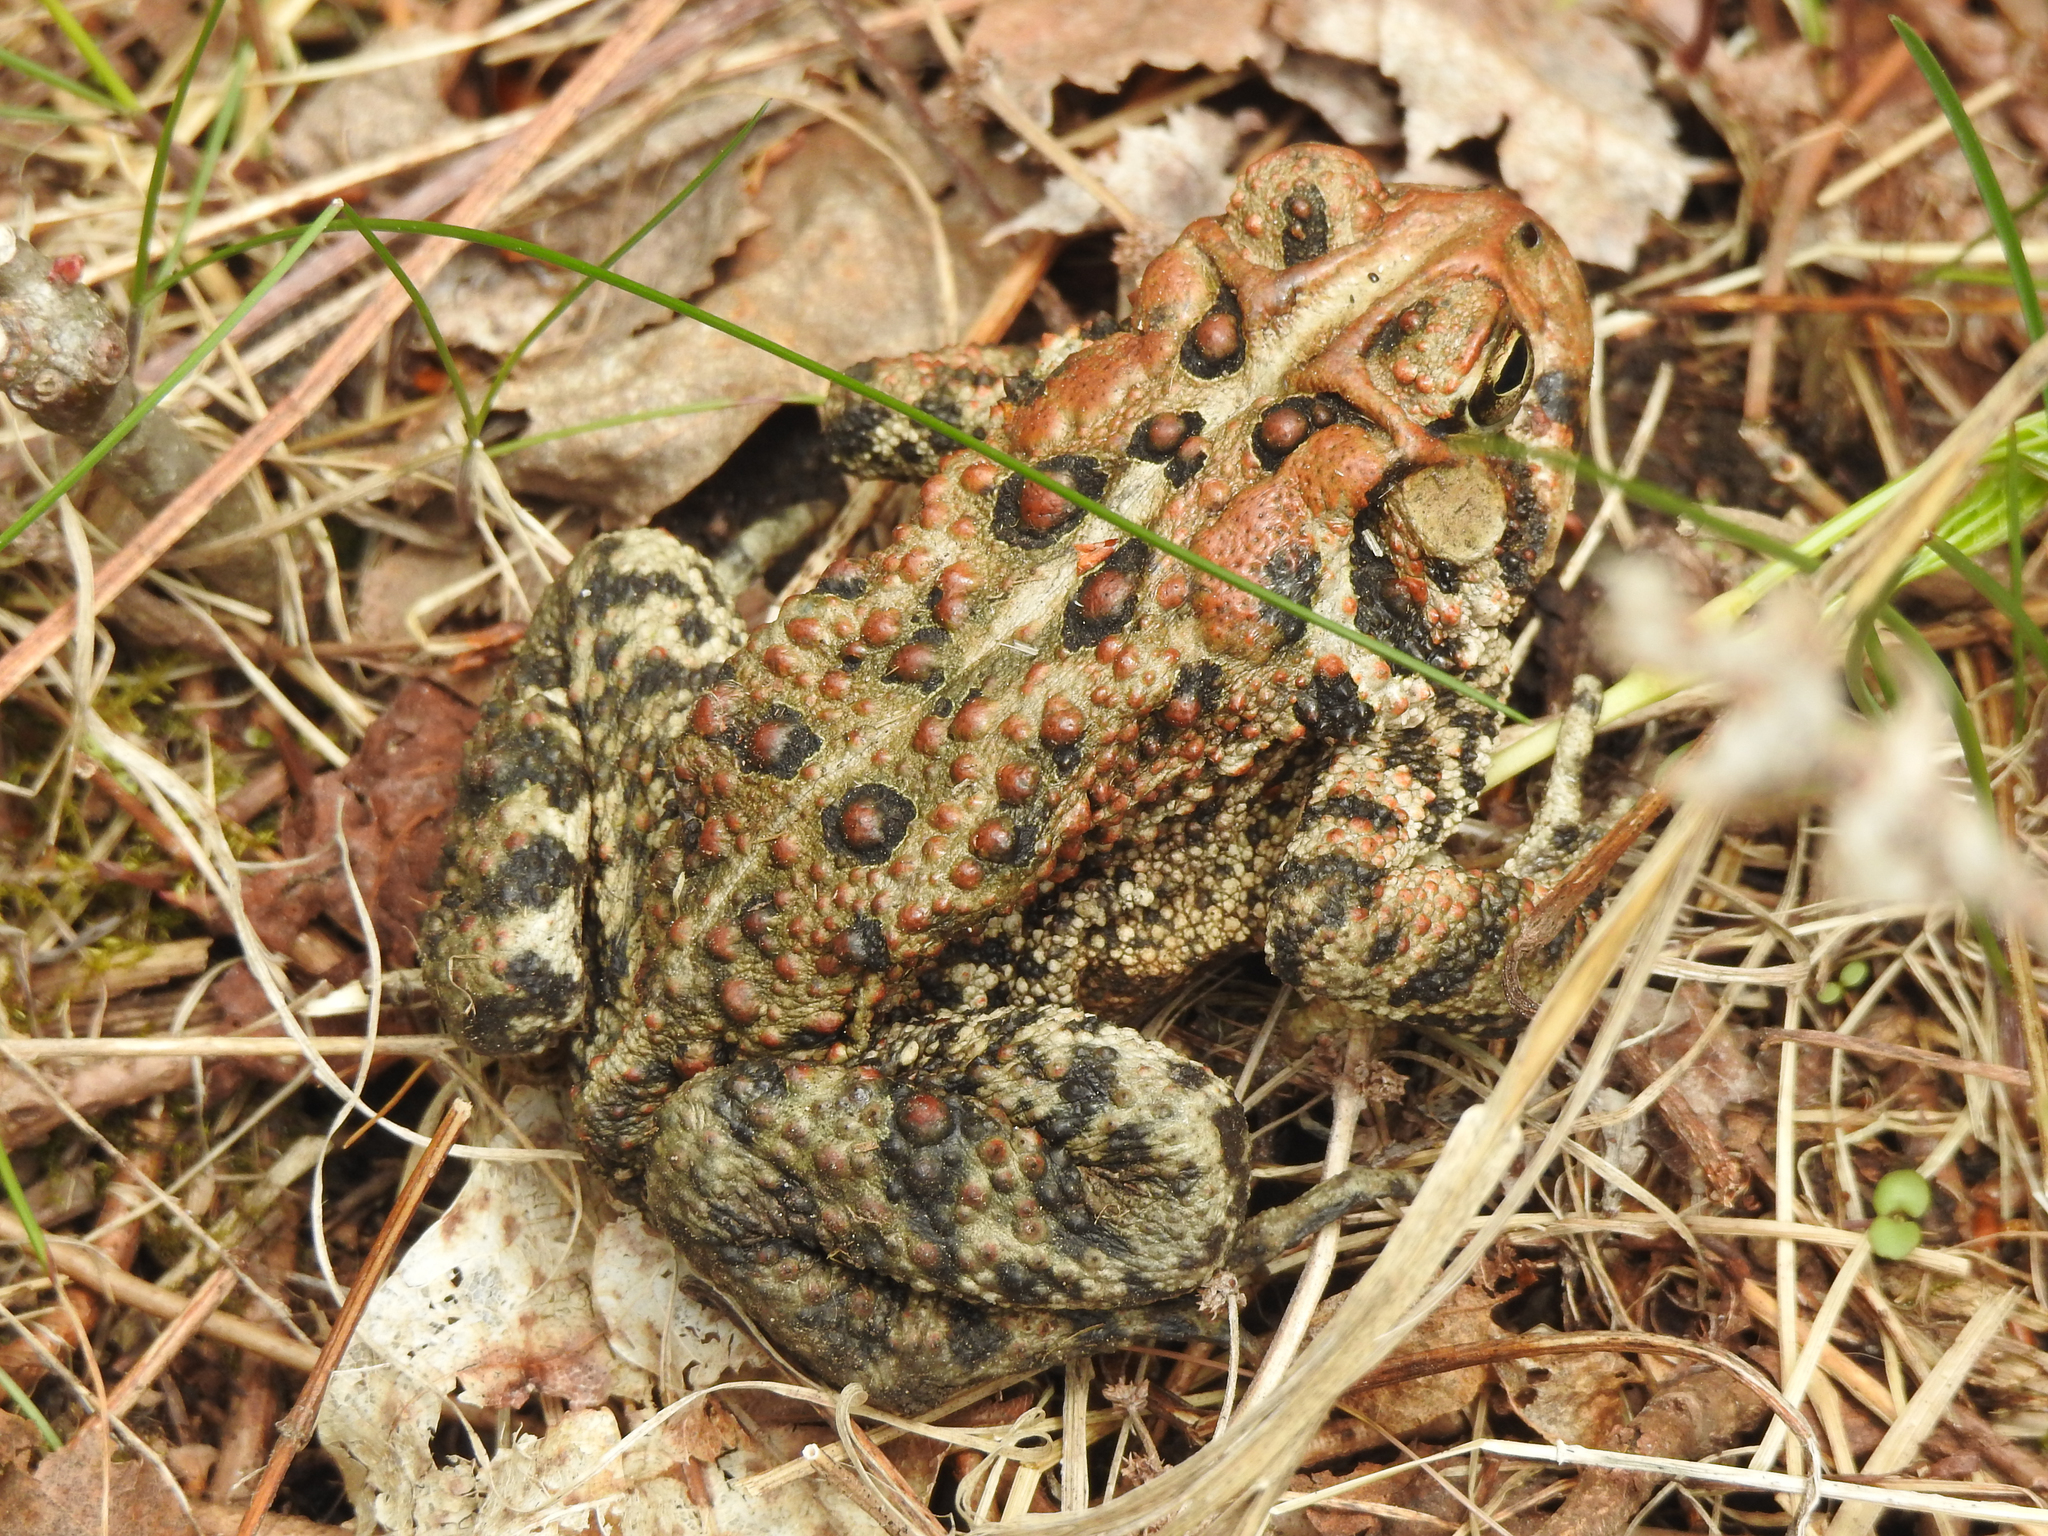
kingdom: Animalia
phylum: Chordata
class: Amphibia
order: Anura
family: Bufonidae
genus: Anaxyrus
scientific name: Anaxyrus americanus
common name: American toad
